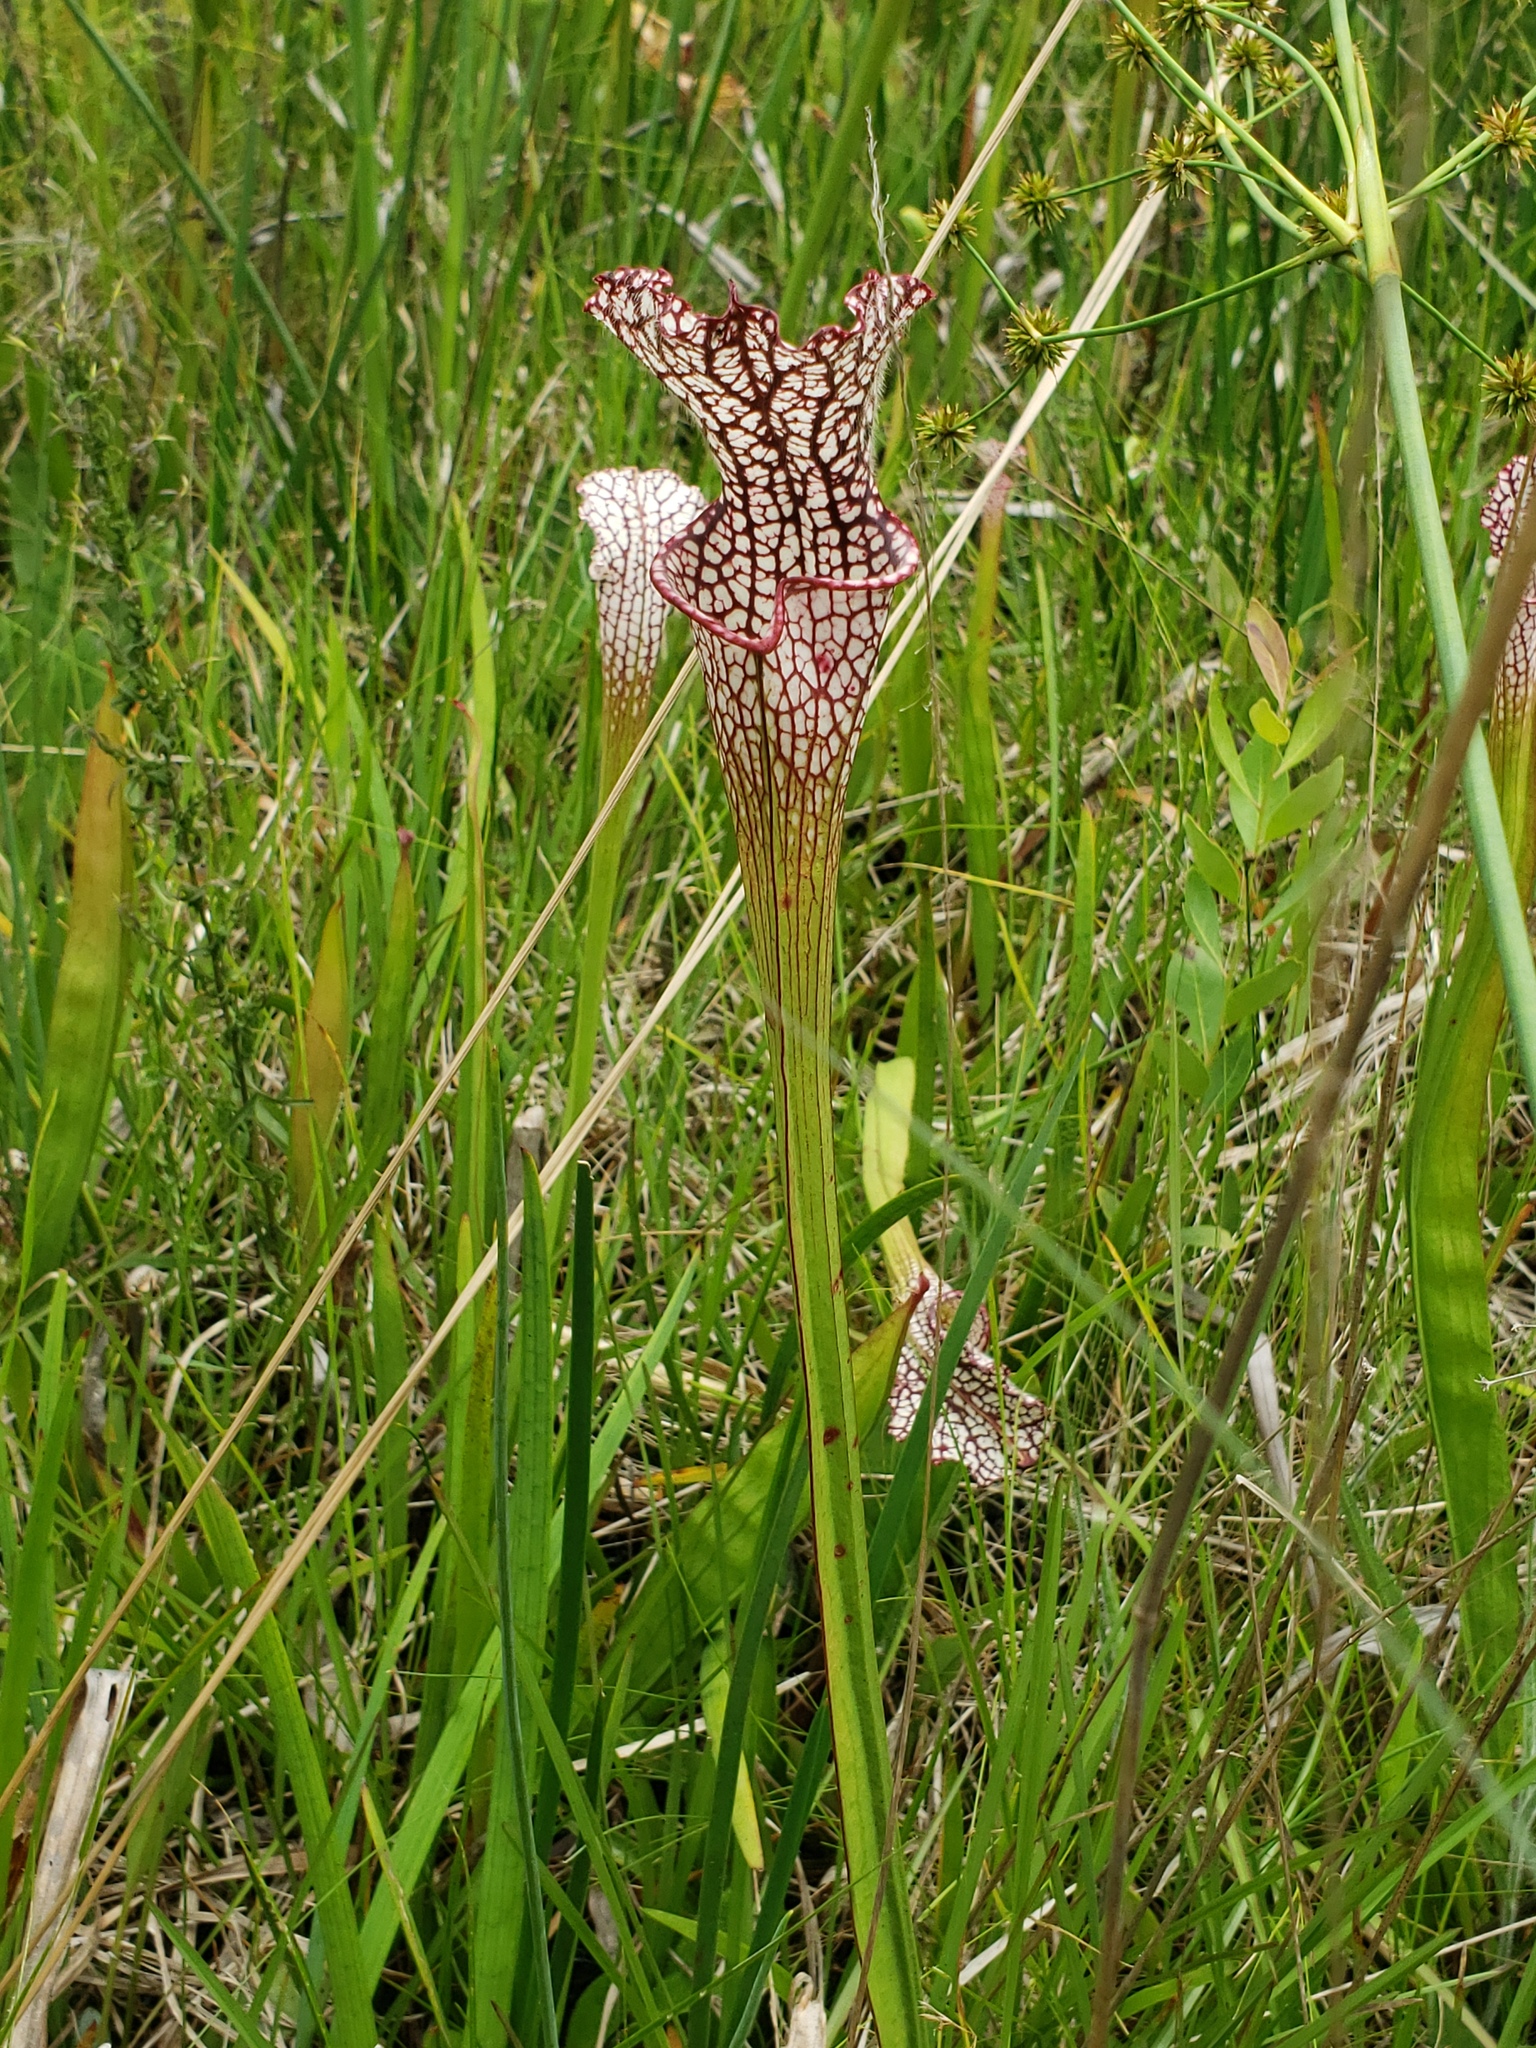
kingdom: Plantae
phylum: Tracheophyta
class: Magnoliopsida
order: Ericales
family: Sarraceniaceae
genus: Sarracenia
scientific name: Sarracenia leucophylla
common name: Purple trumpetleaf
